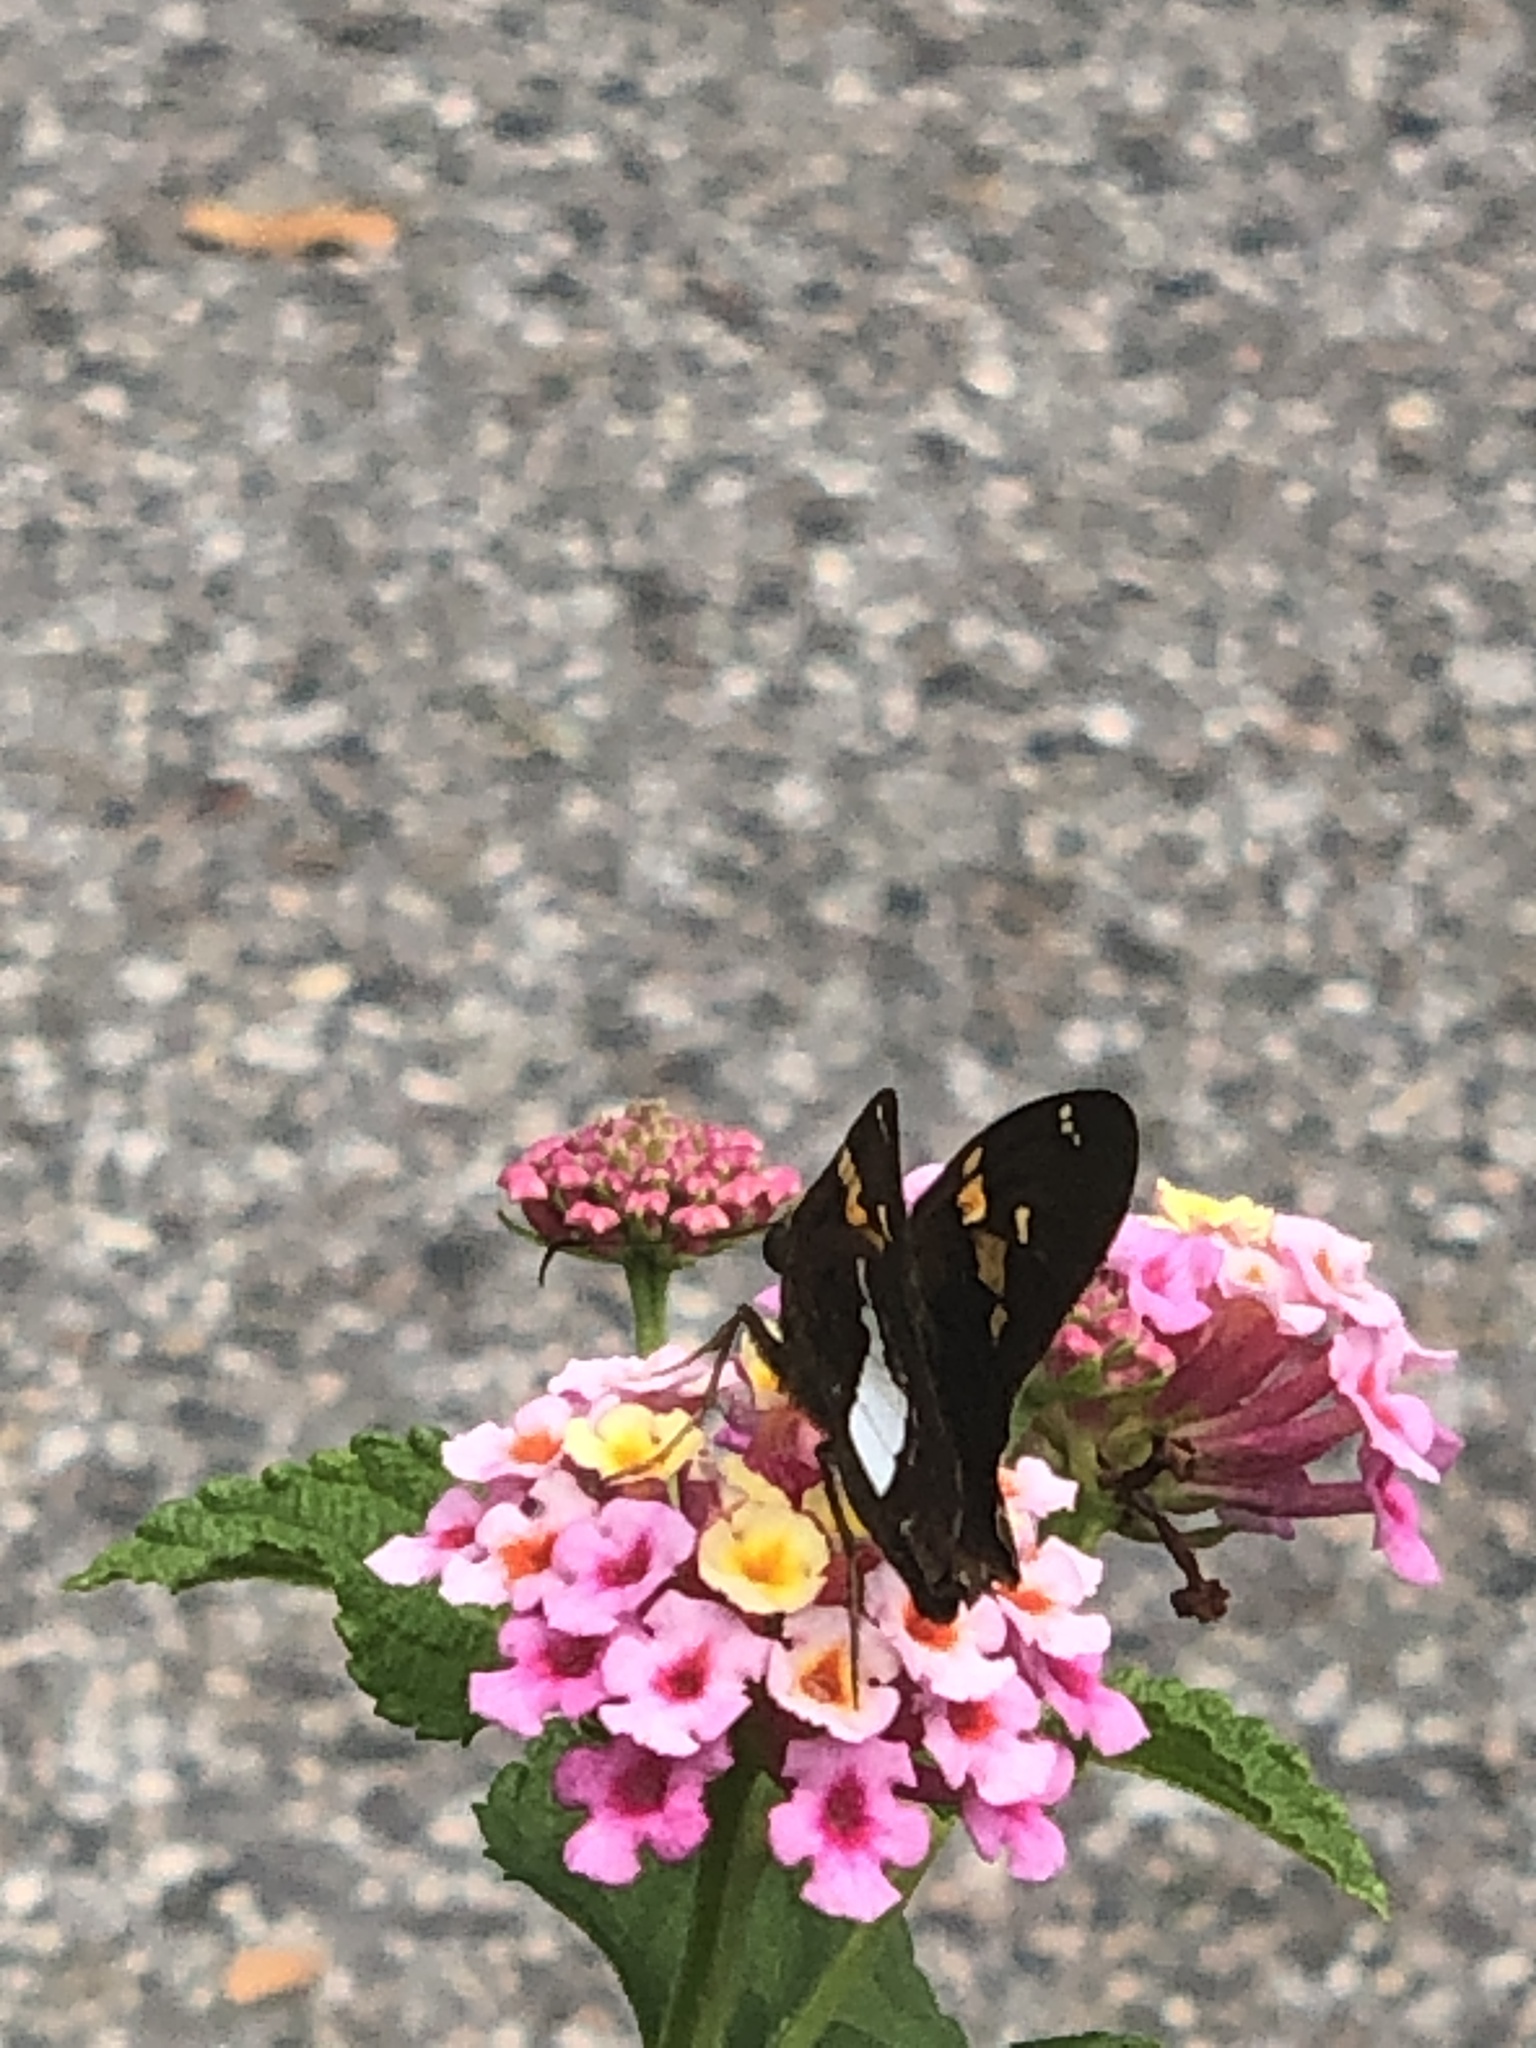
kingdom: Animalia
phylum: Arthropoda
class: Insecta
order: Lepidoptera
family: Hesperiidae
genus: Epargyreus
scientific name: Epargyreus clarus
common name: Silver-spotted skipper
